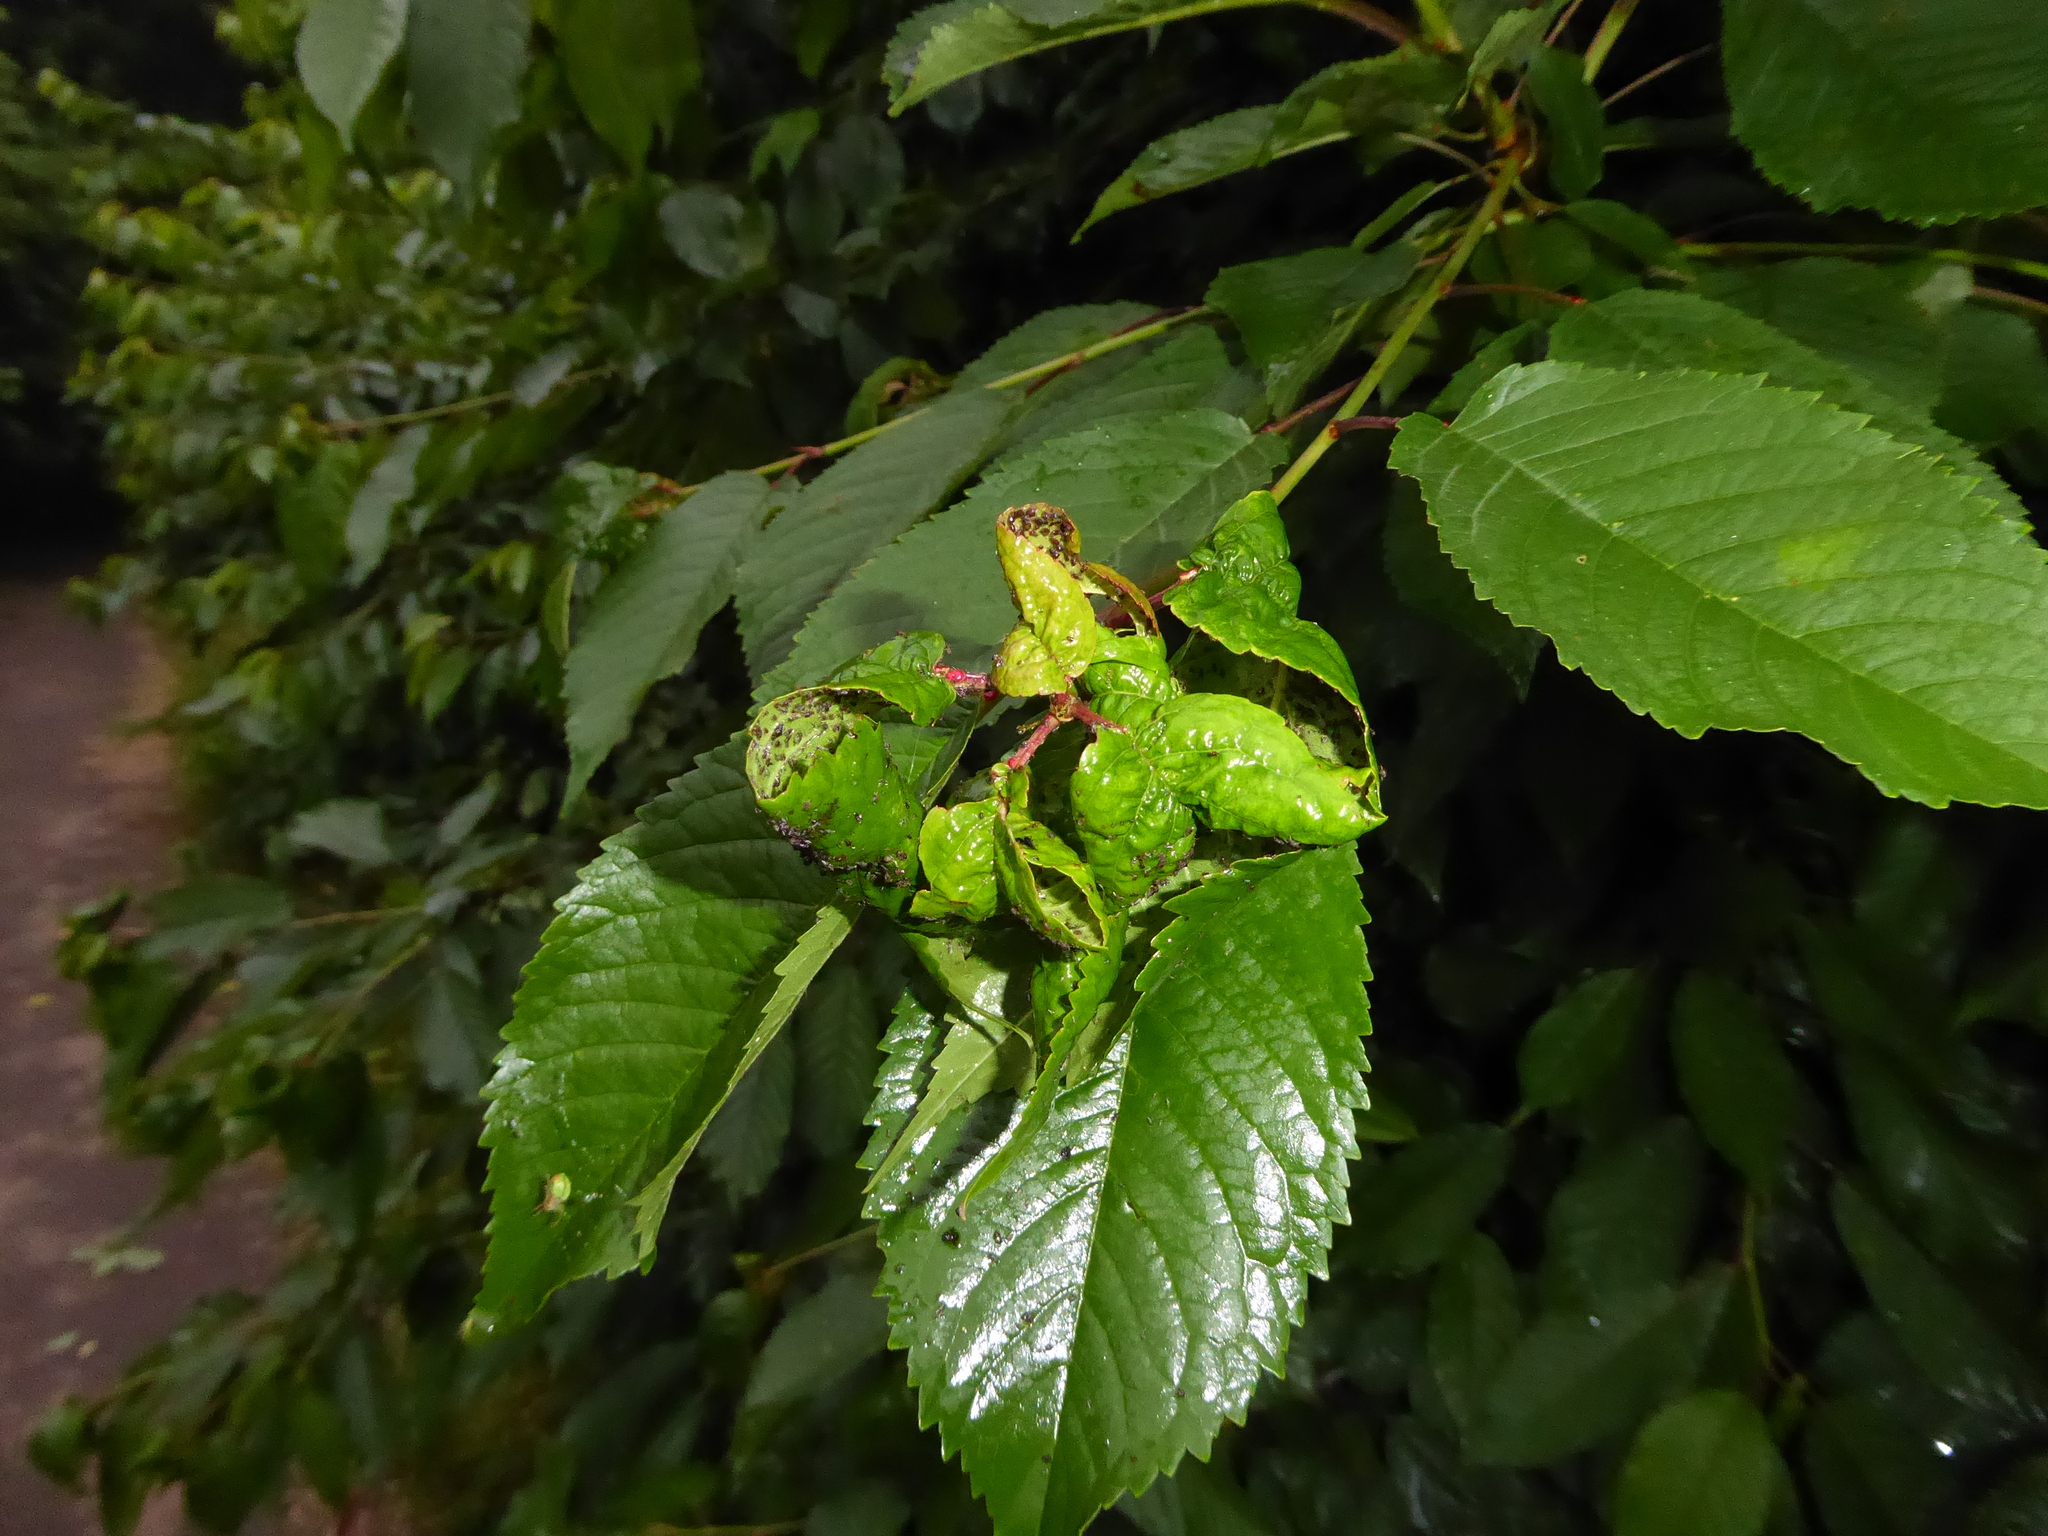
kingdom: Plantae
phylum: Tracheophyta
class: Magnoliopsida
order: Rosales
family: Rosaceae
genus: Prunus
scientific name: Prunus avium
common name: Sweet cherry
